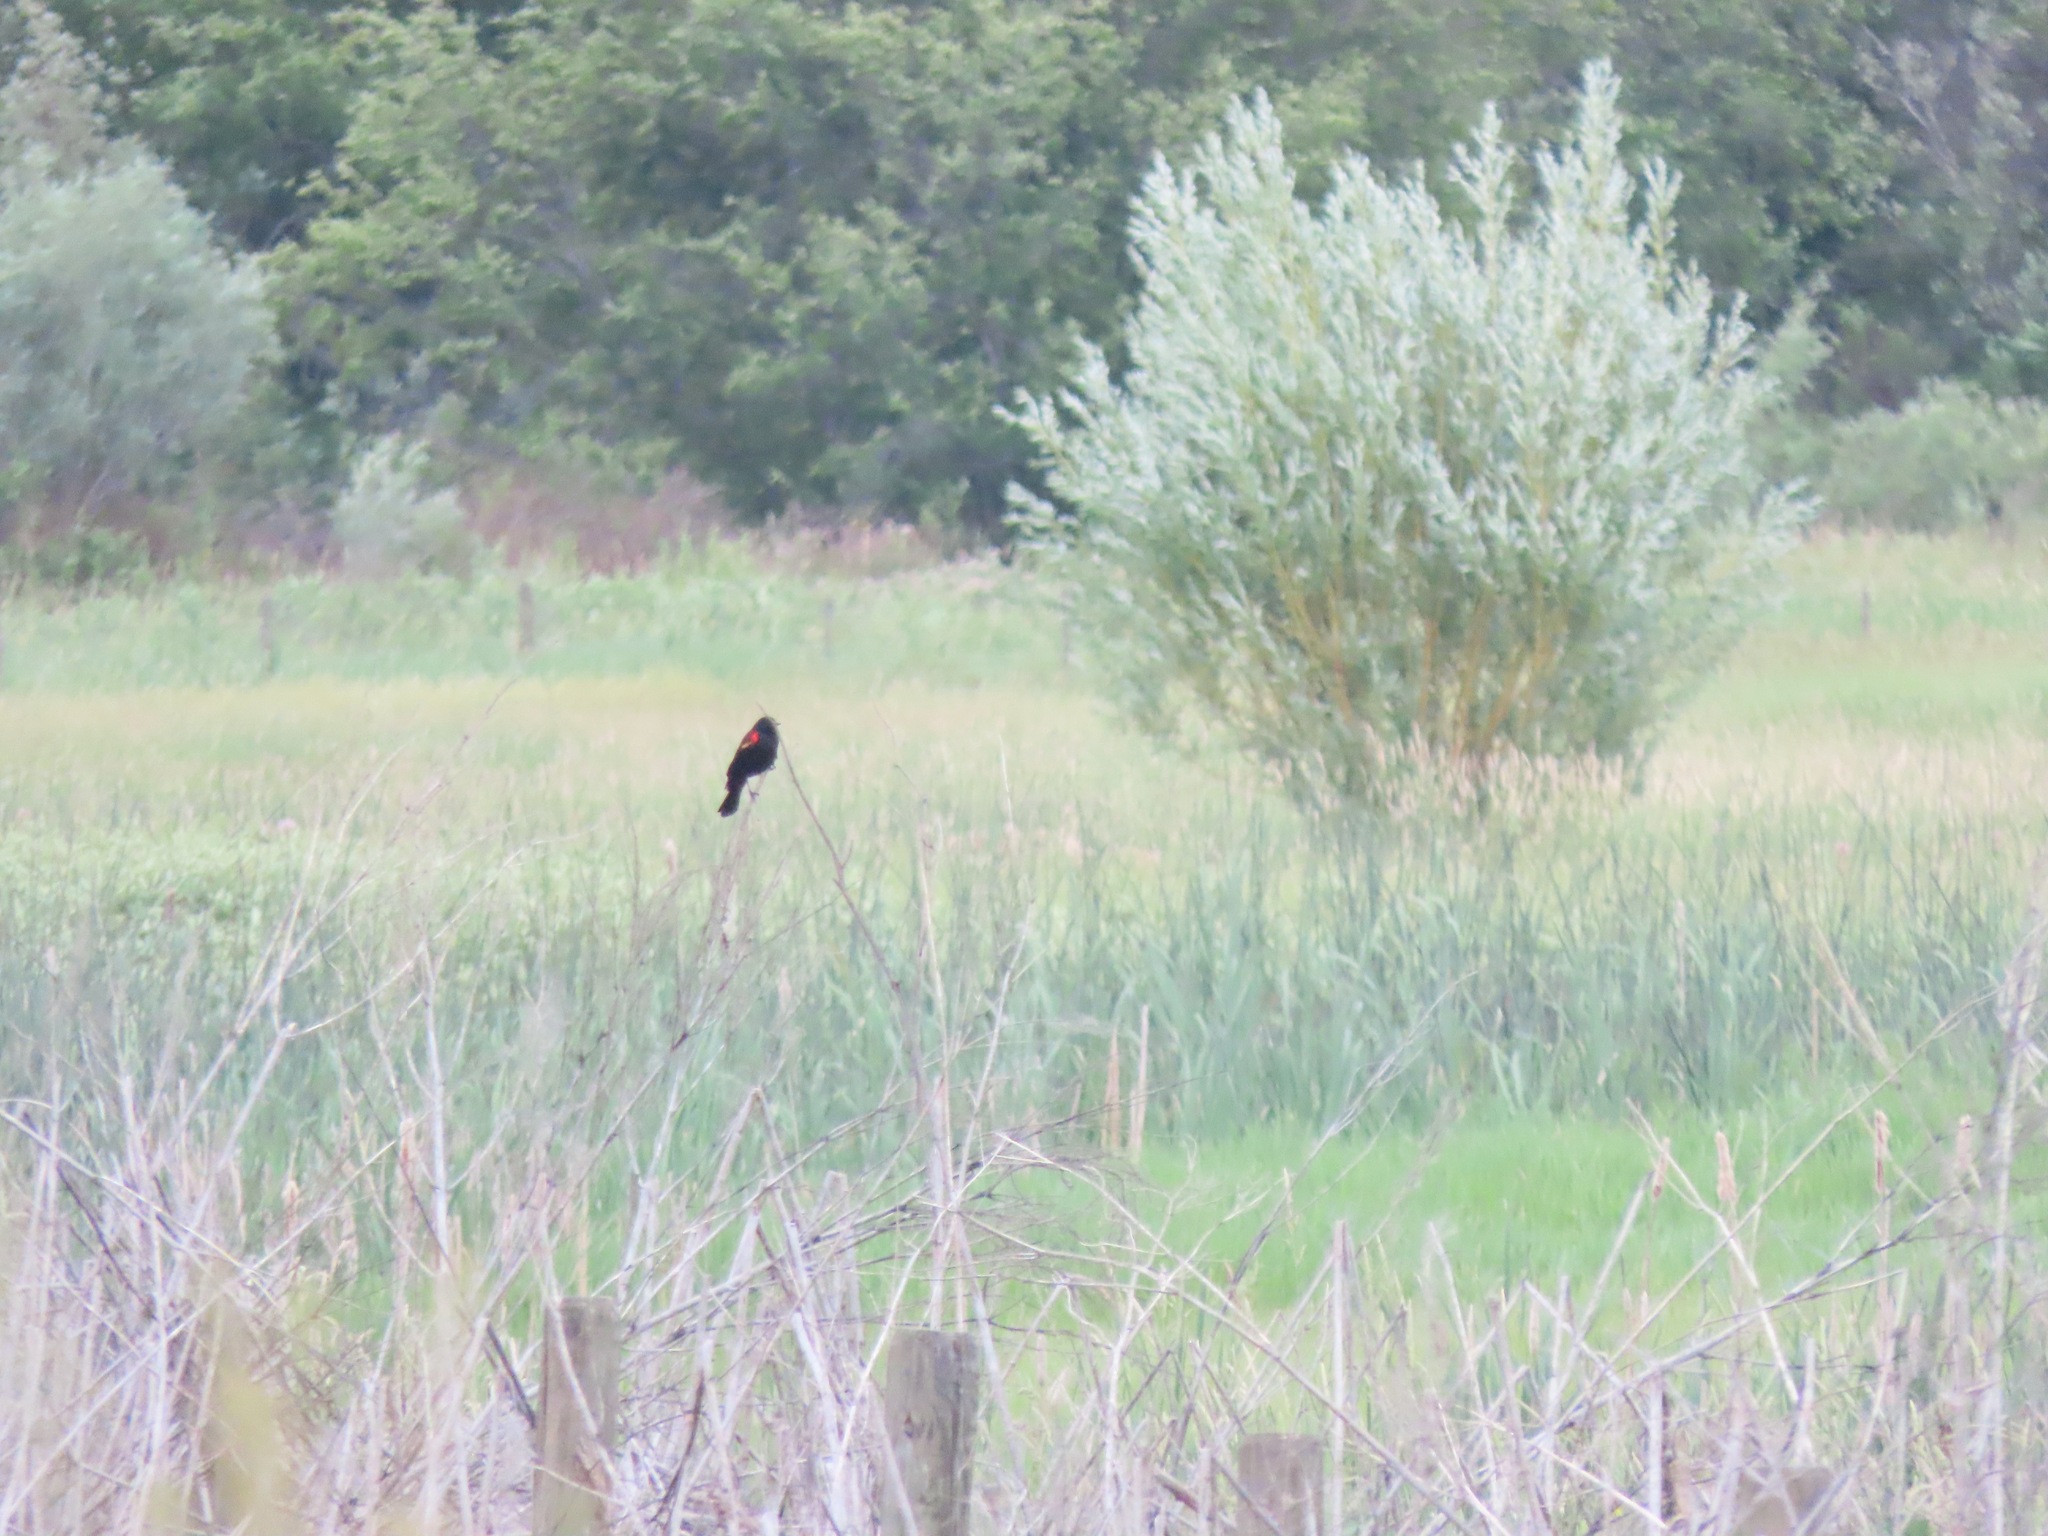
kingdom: Animalia
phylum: Chordata
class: Aves
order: Passeriformes
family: Icteridae
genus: Agelaius
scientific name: Agelaius phoeniceus
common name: Red-winged blackbird
